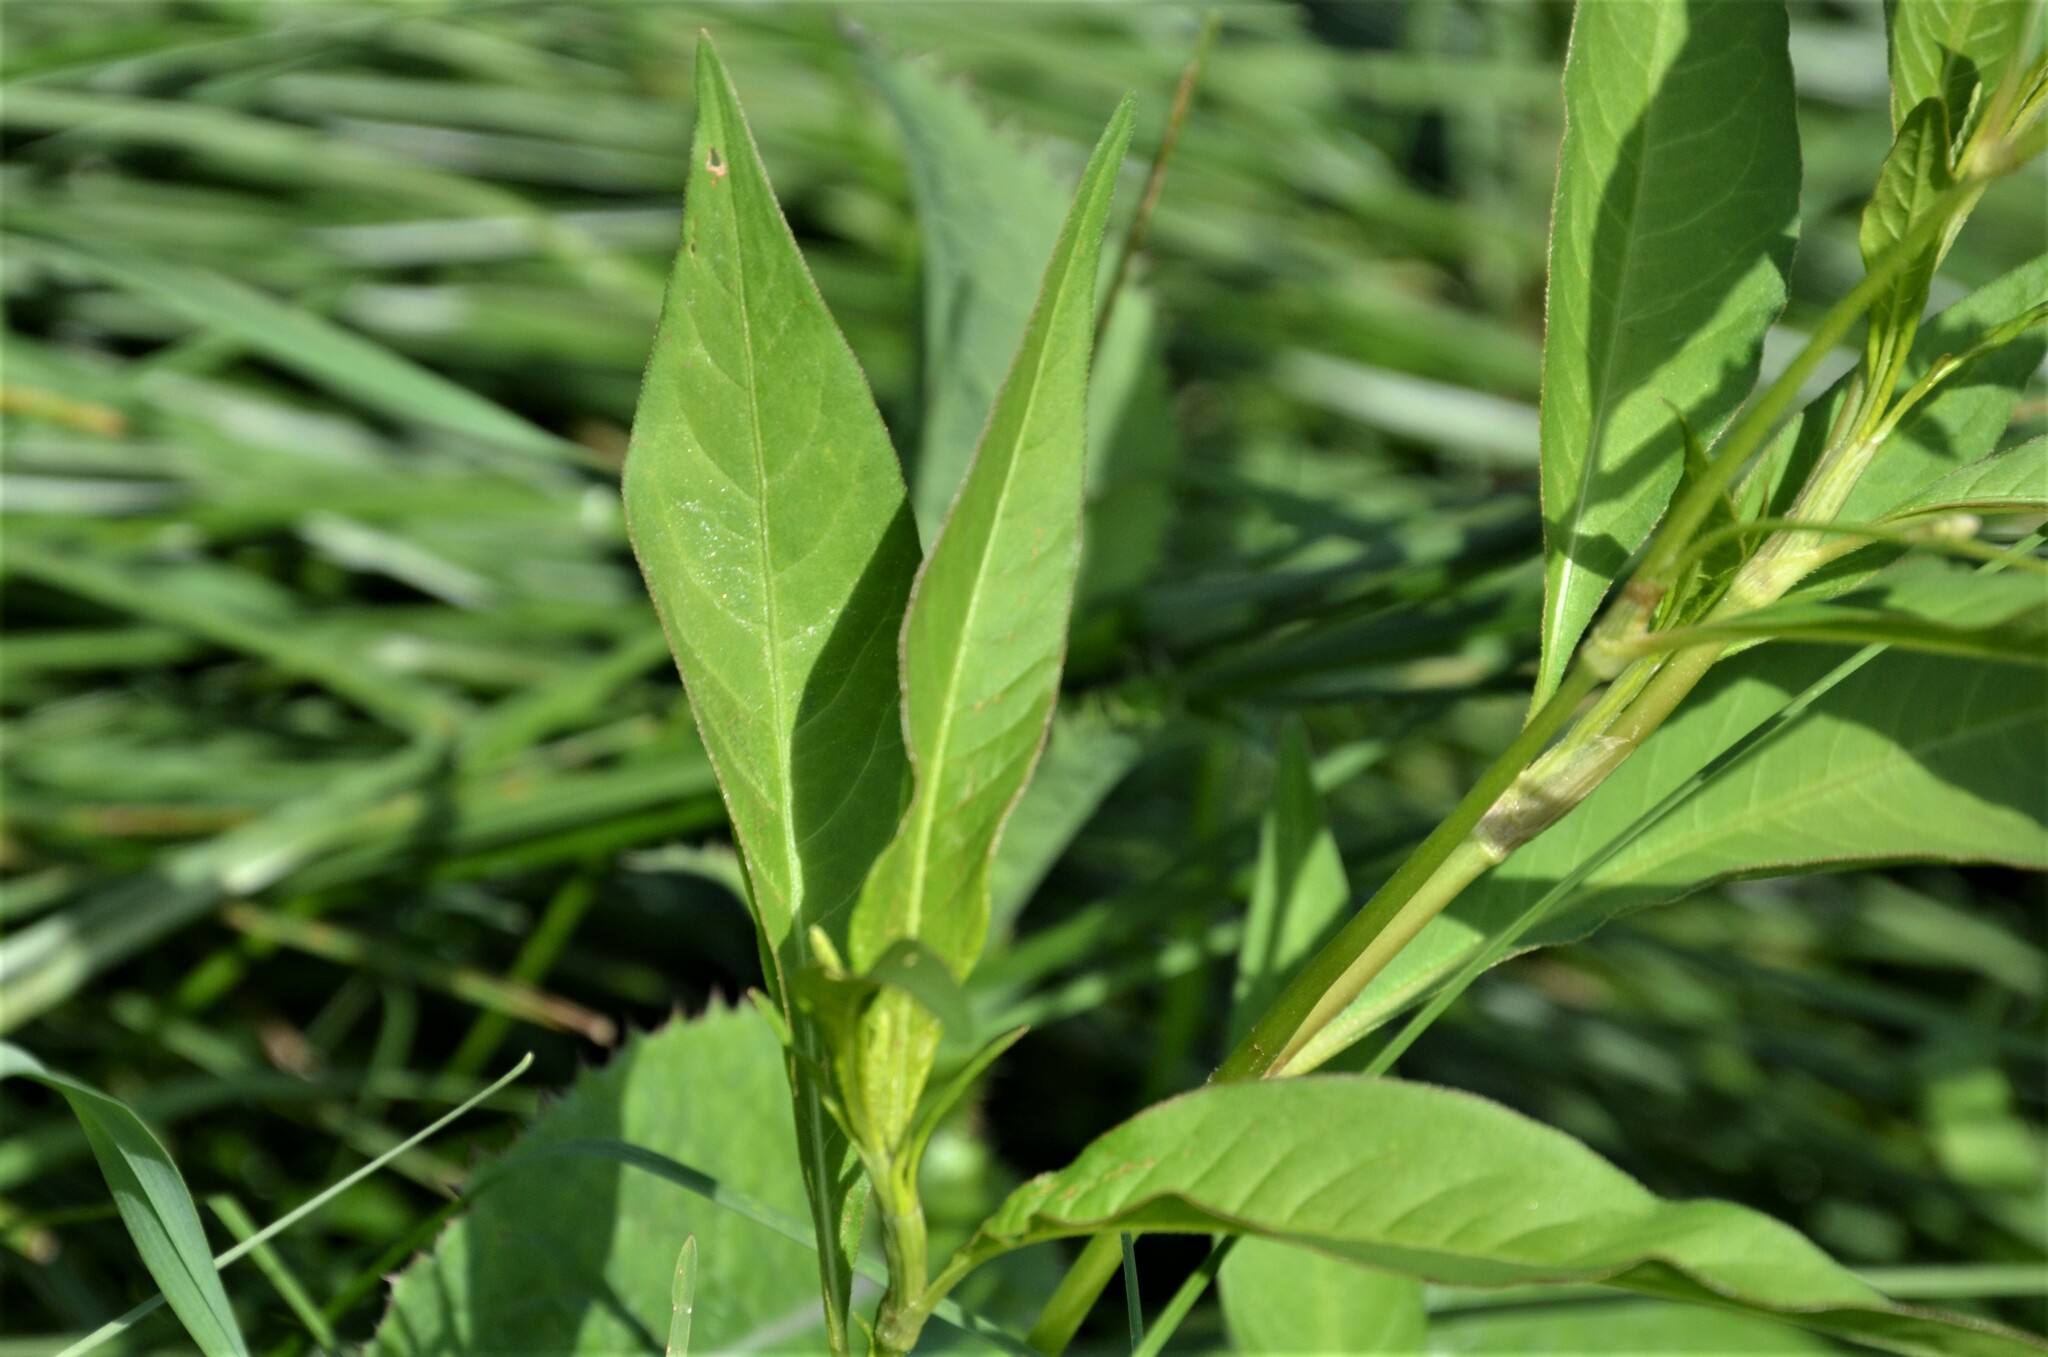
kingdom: Plantae
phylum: Tracheophyta
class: Magnoliopsida
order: Caryophyllales
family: Polygonaceae
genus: Persicaria
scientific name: Persicaria lapathifolia
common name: Curlytop knotweed
